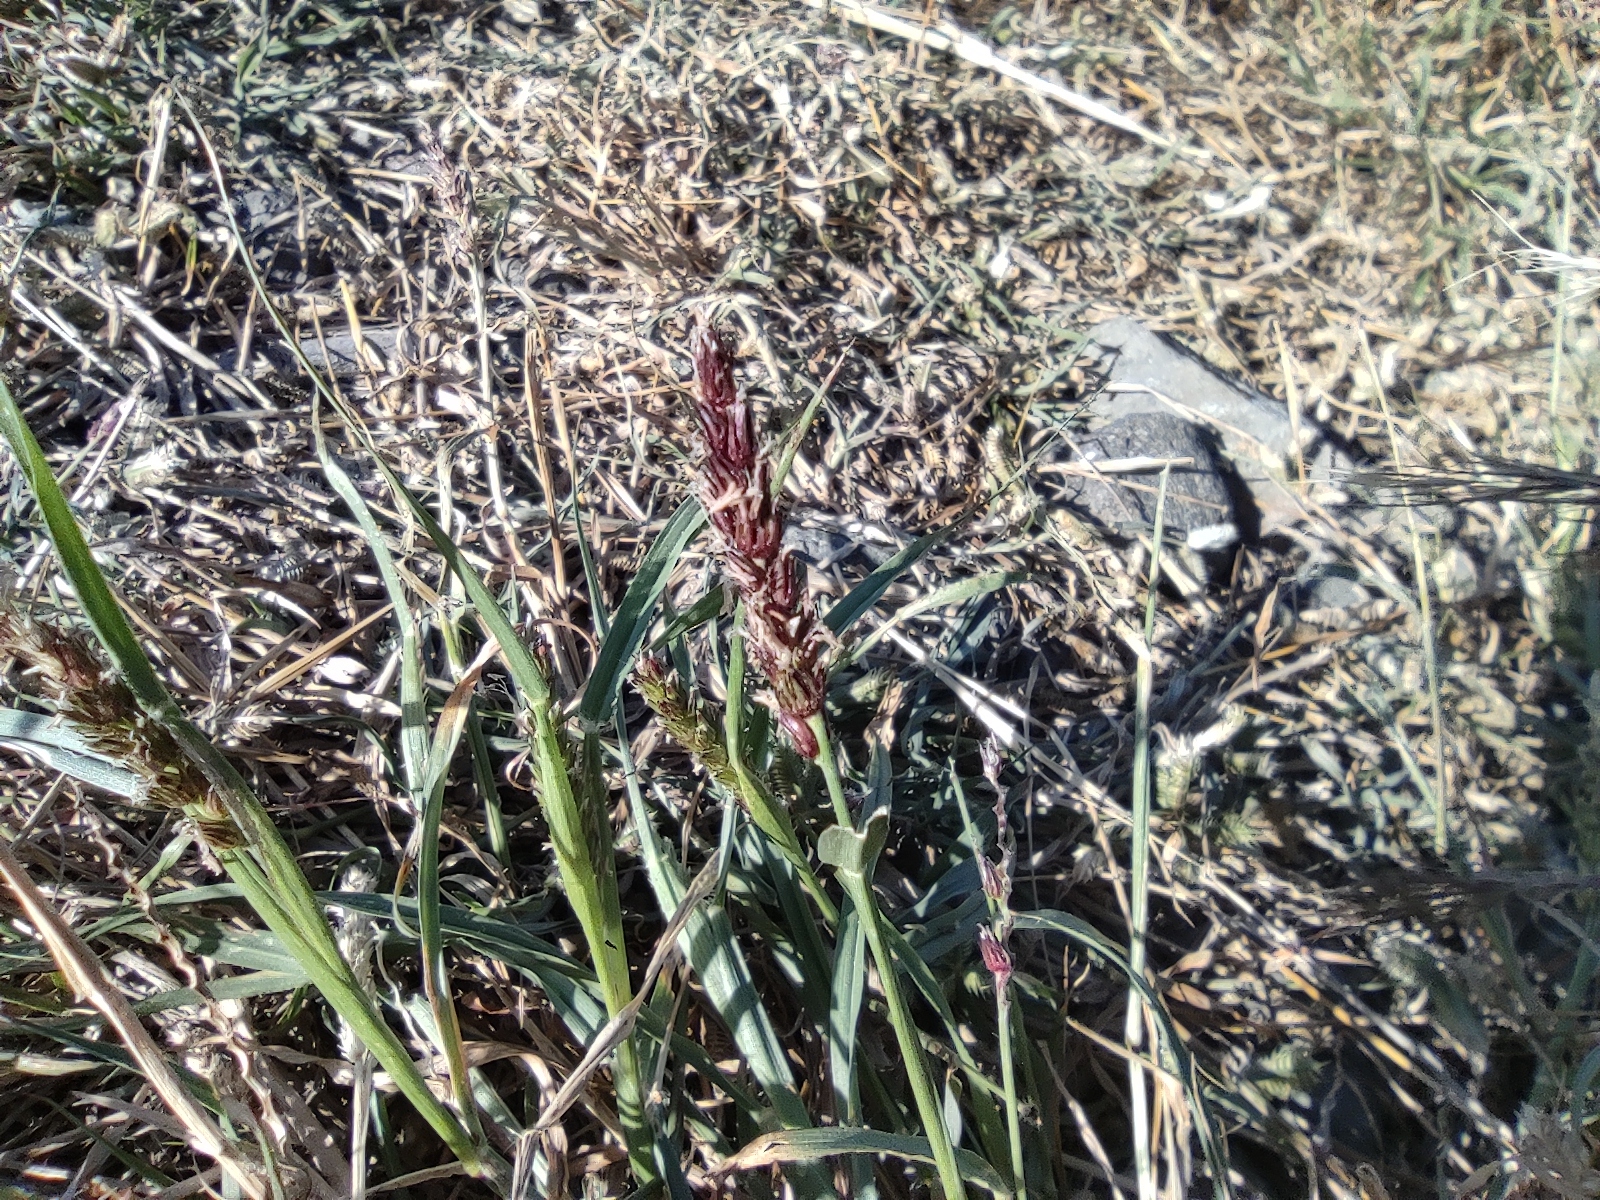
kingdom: Plantae
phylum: Tracheophyta
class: Liliopsida
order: Poales
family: Poaceae
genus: Cenchrus
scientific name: Cenchrus setigerus
